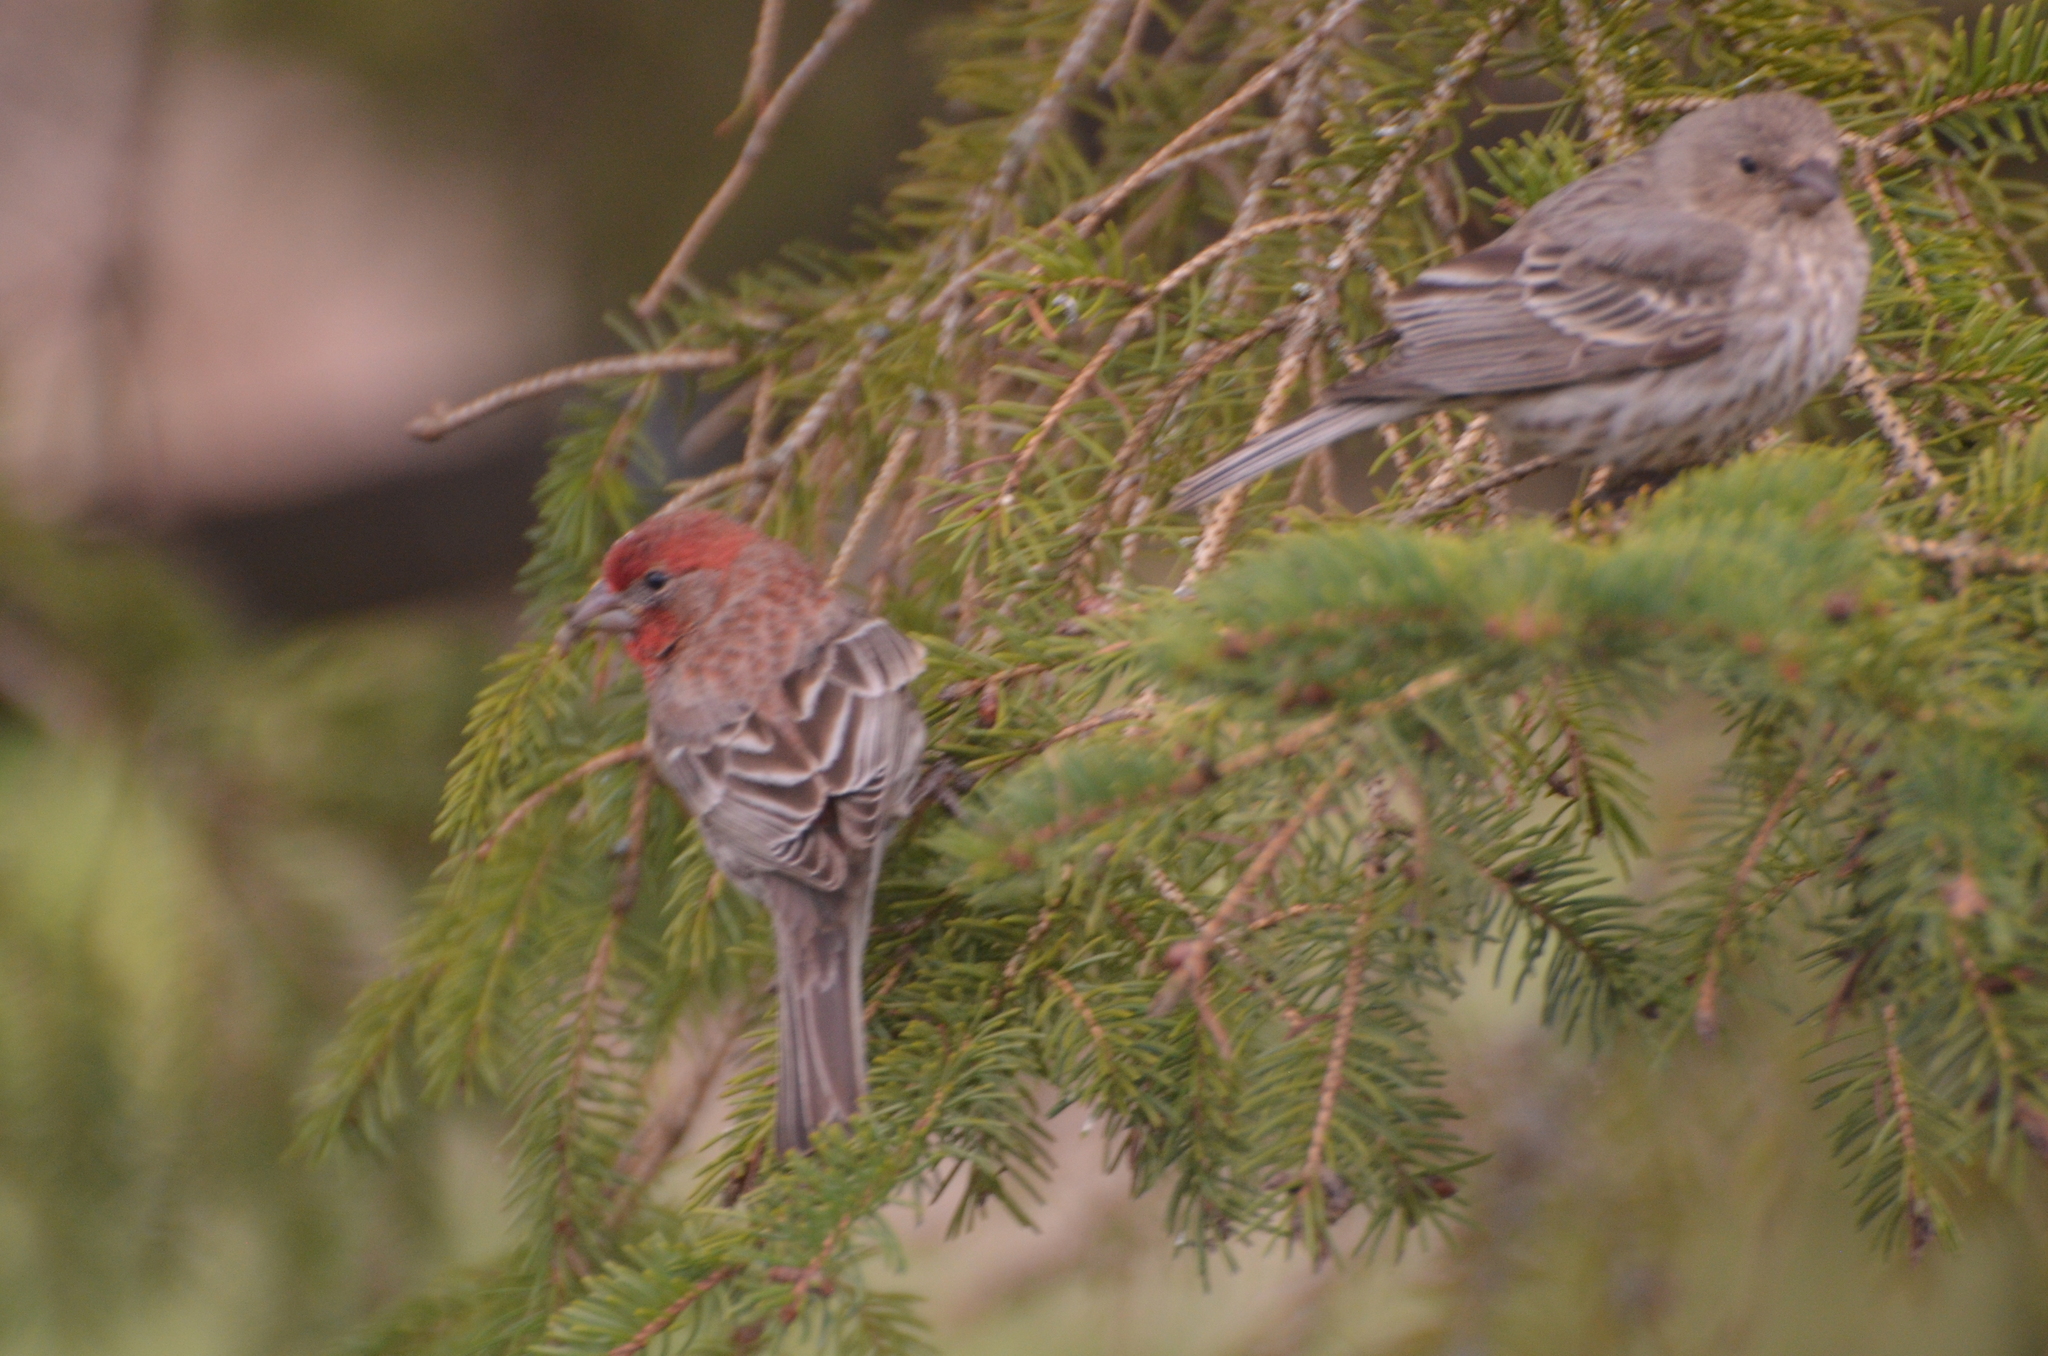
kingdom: Animalia
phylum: Chordata
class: Aves
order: Passeriformes
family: Fringillidae
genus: Haemorhous
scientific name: Haemorhous mexicanus
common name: House finch
